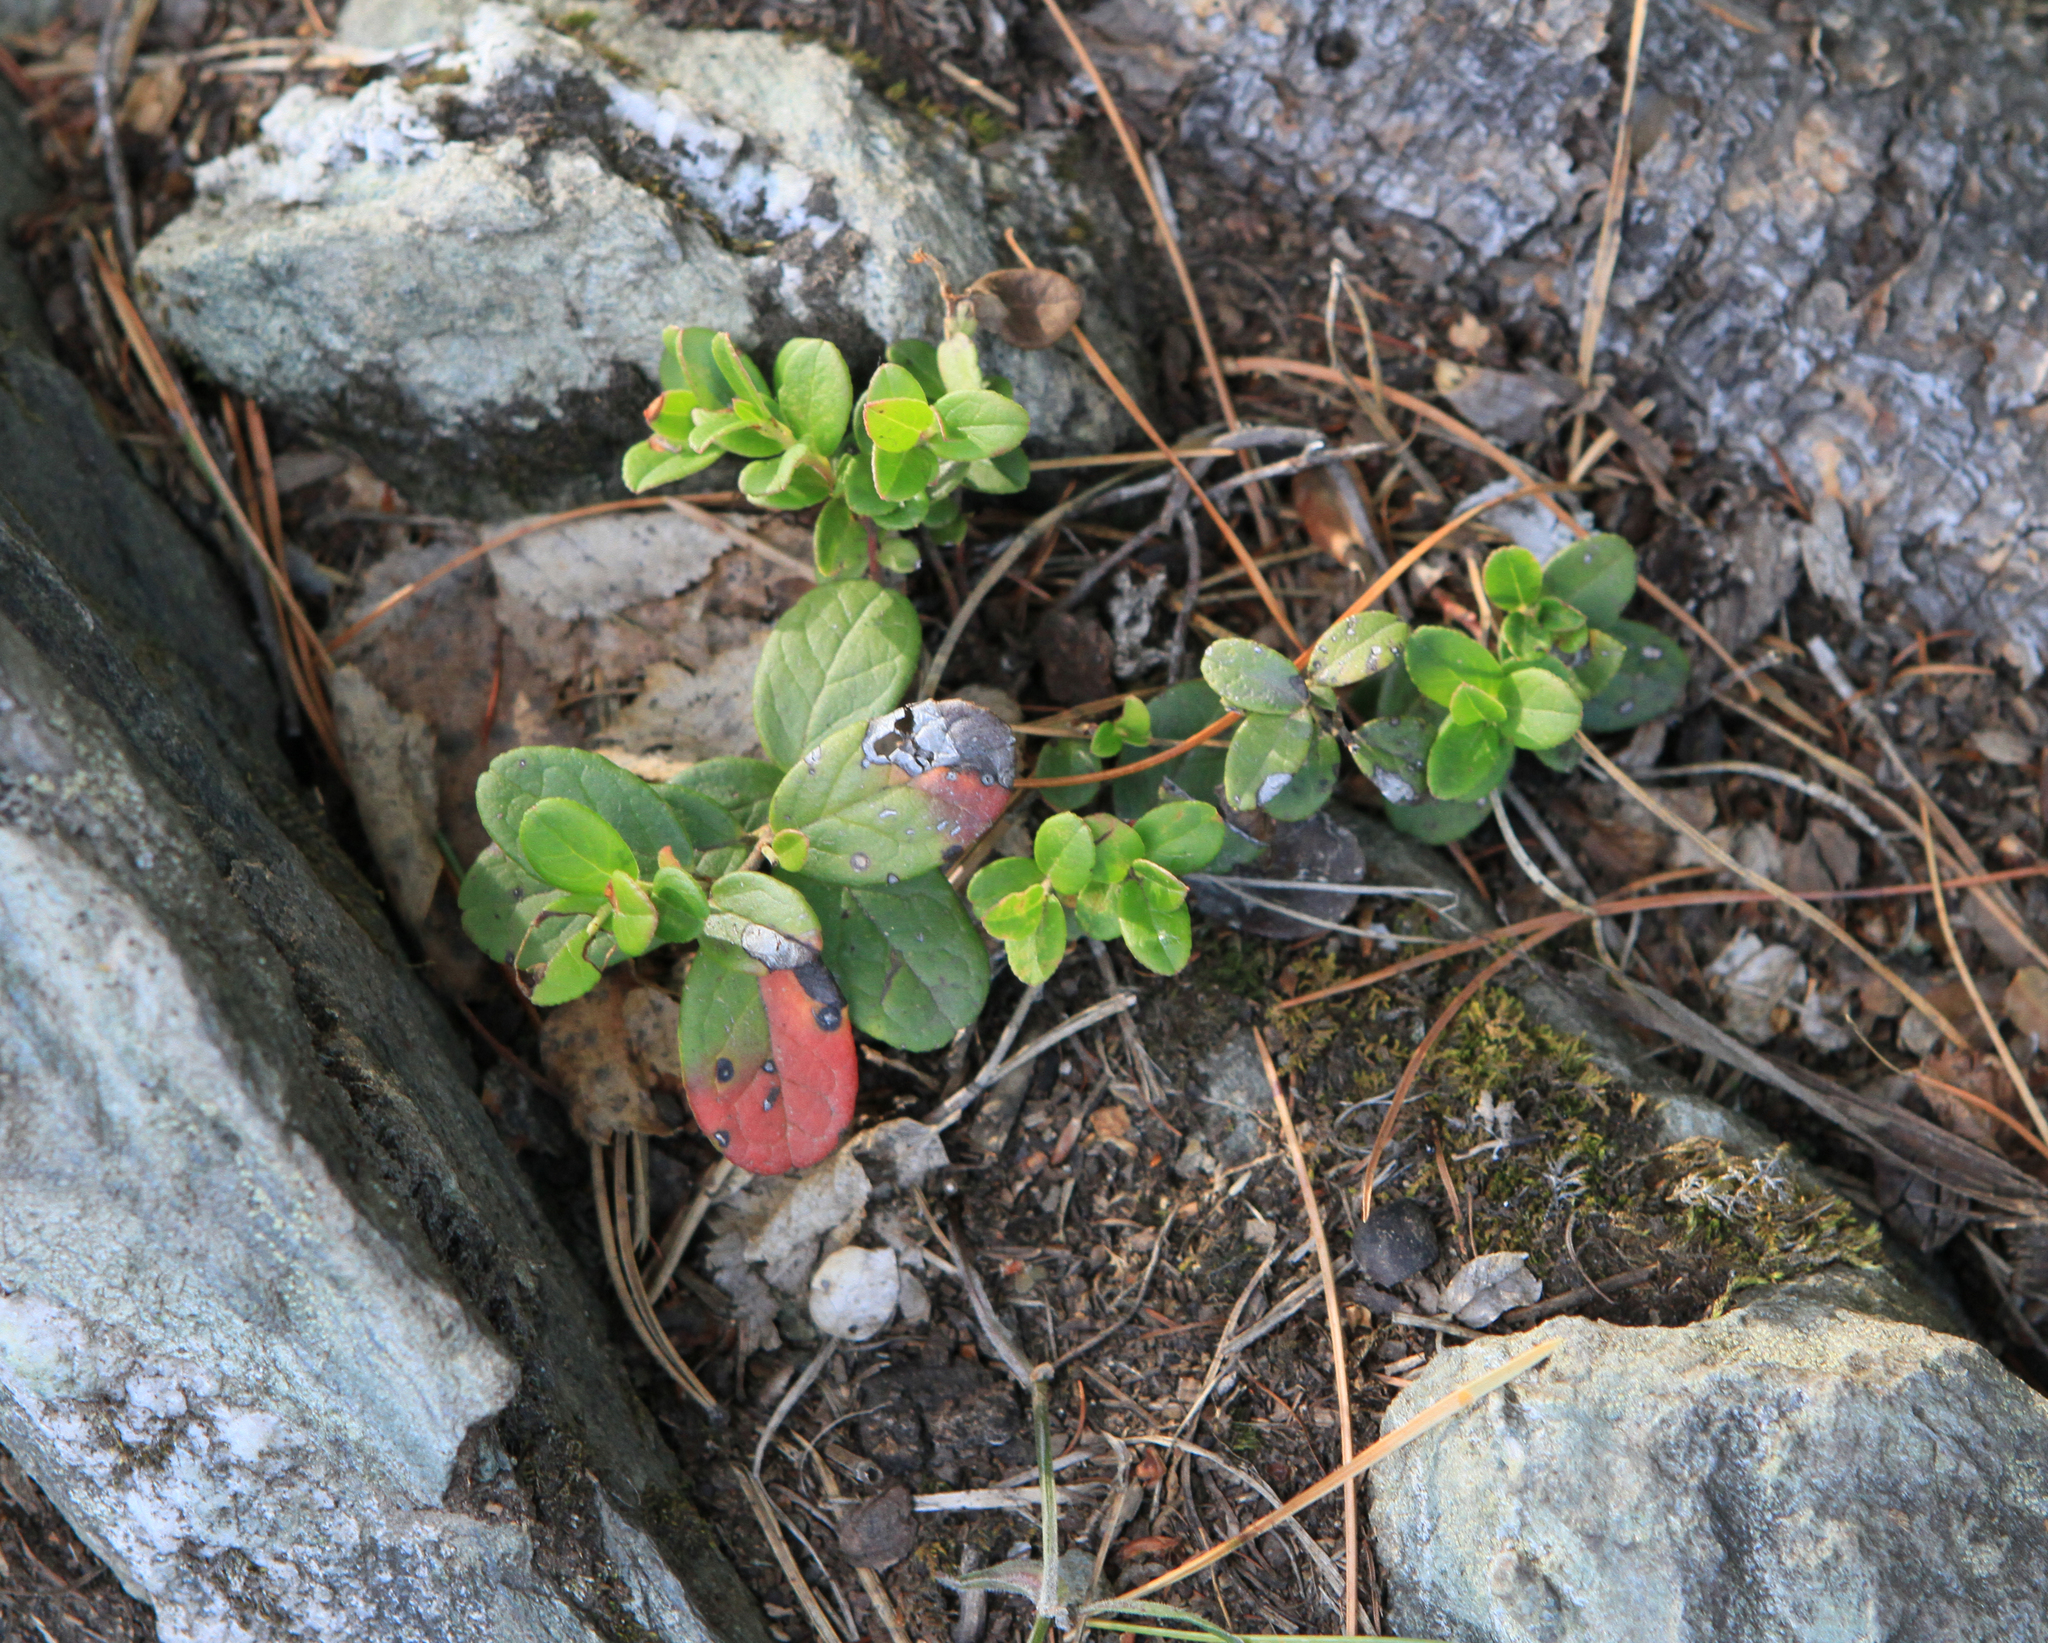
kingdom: Plantae
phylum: Tracheophyta
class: Magnoliopsida
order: Ericales
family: Ericaceae
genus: Vaccinium
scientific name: Vaccinium vitis-idaea
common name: Cowberry
